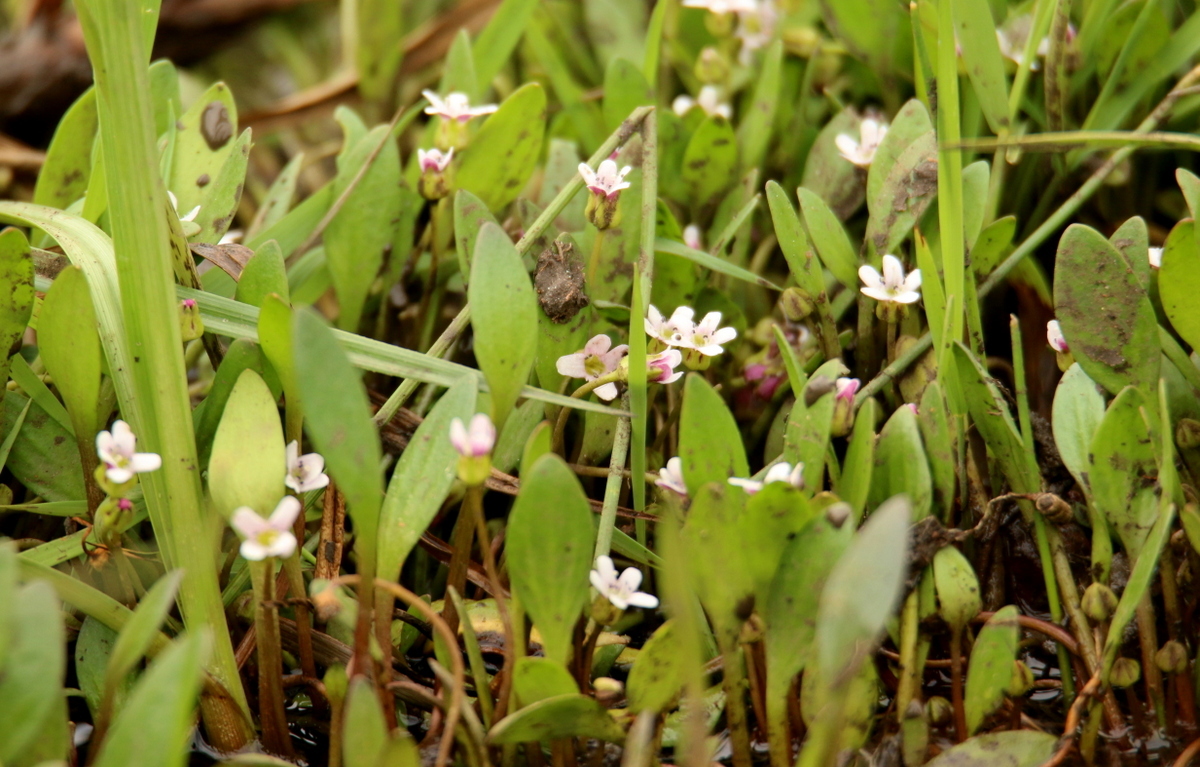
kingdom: Plantae
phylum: Tracheophyta
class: Magnoliopsida
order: Lamiales
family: Scrophulariaceae
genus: Limosella
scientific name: Limosella major
